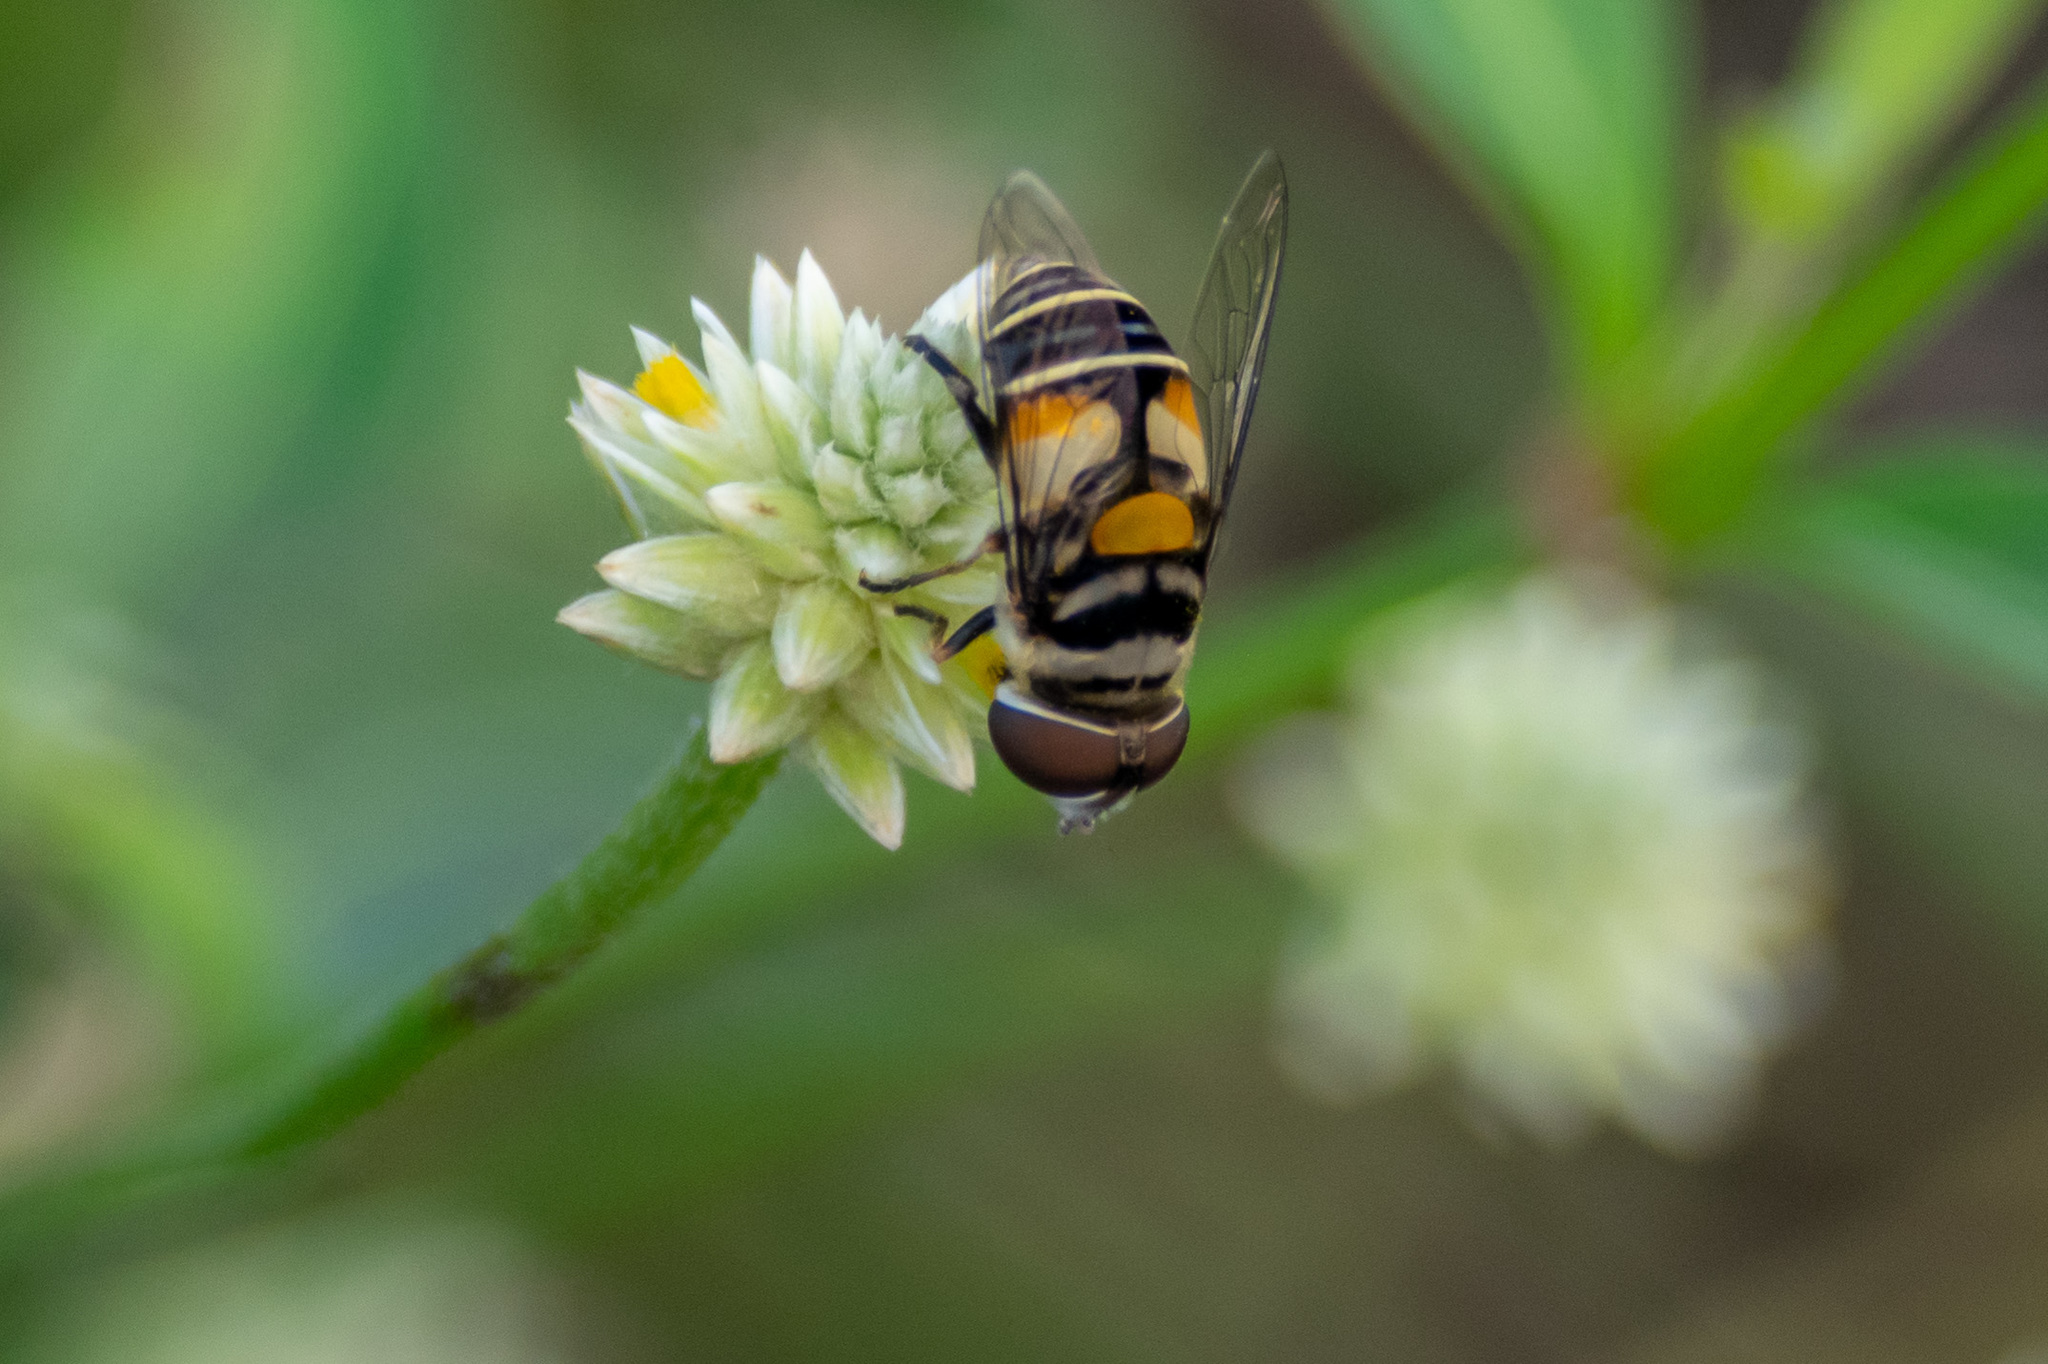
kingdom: Animalia
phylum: Arthropoda
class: Insecta
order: Diptera
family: Syrphidae
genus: Palpada
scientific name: Palpada albifrons
